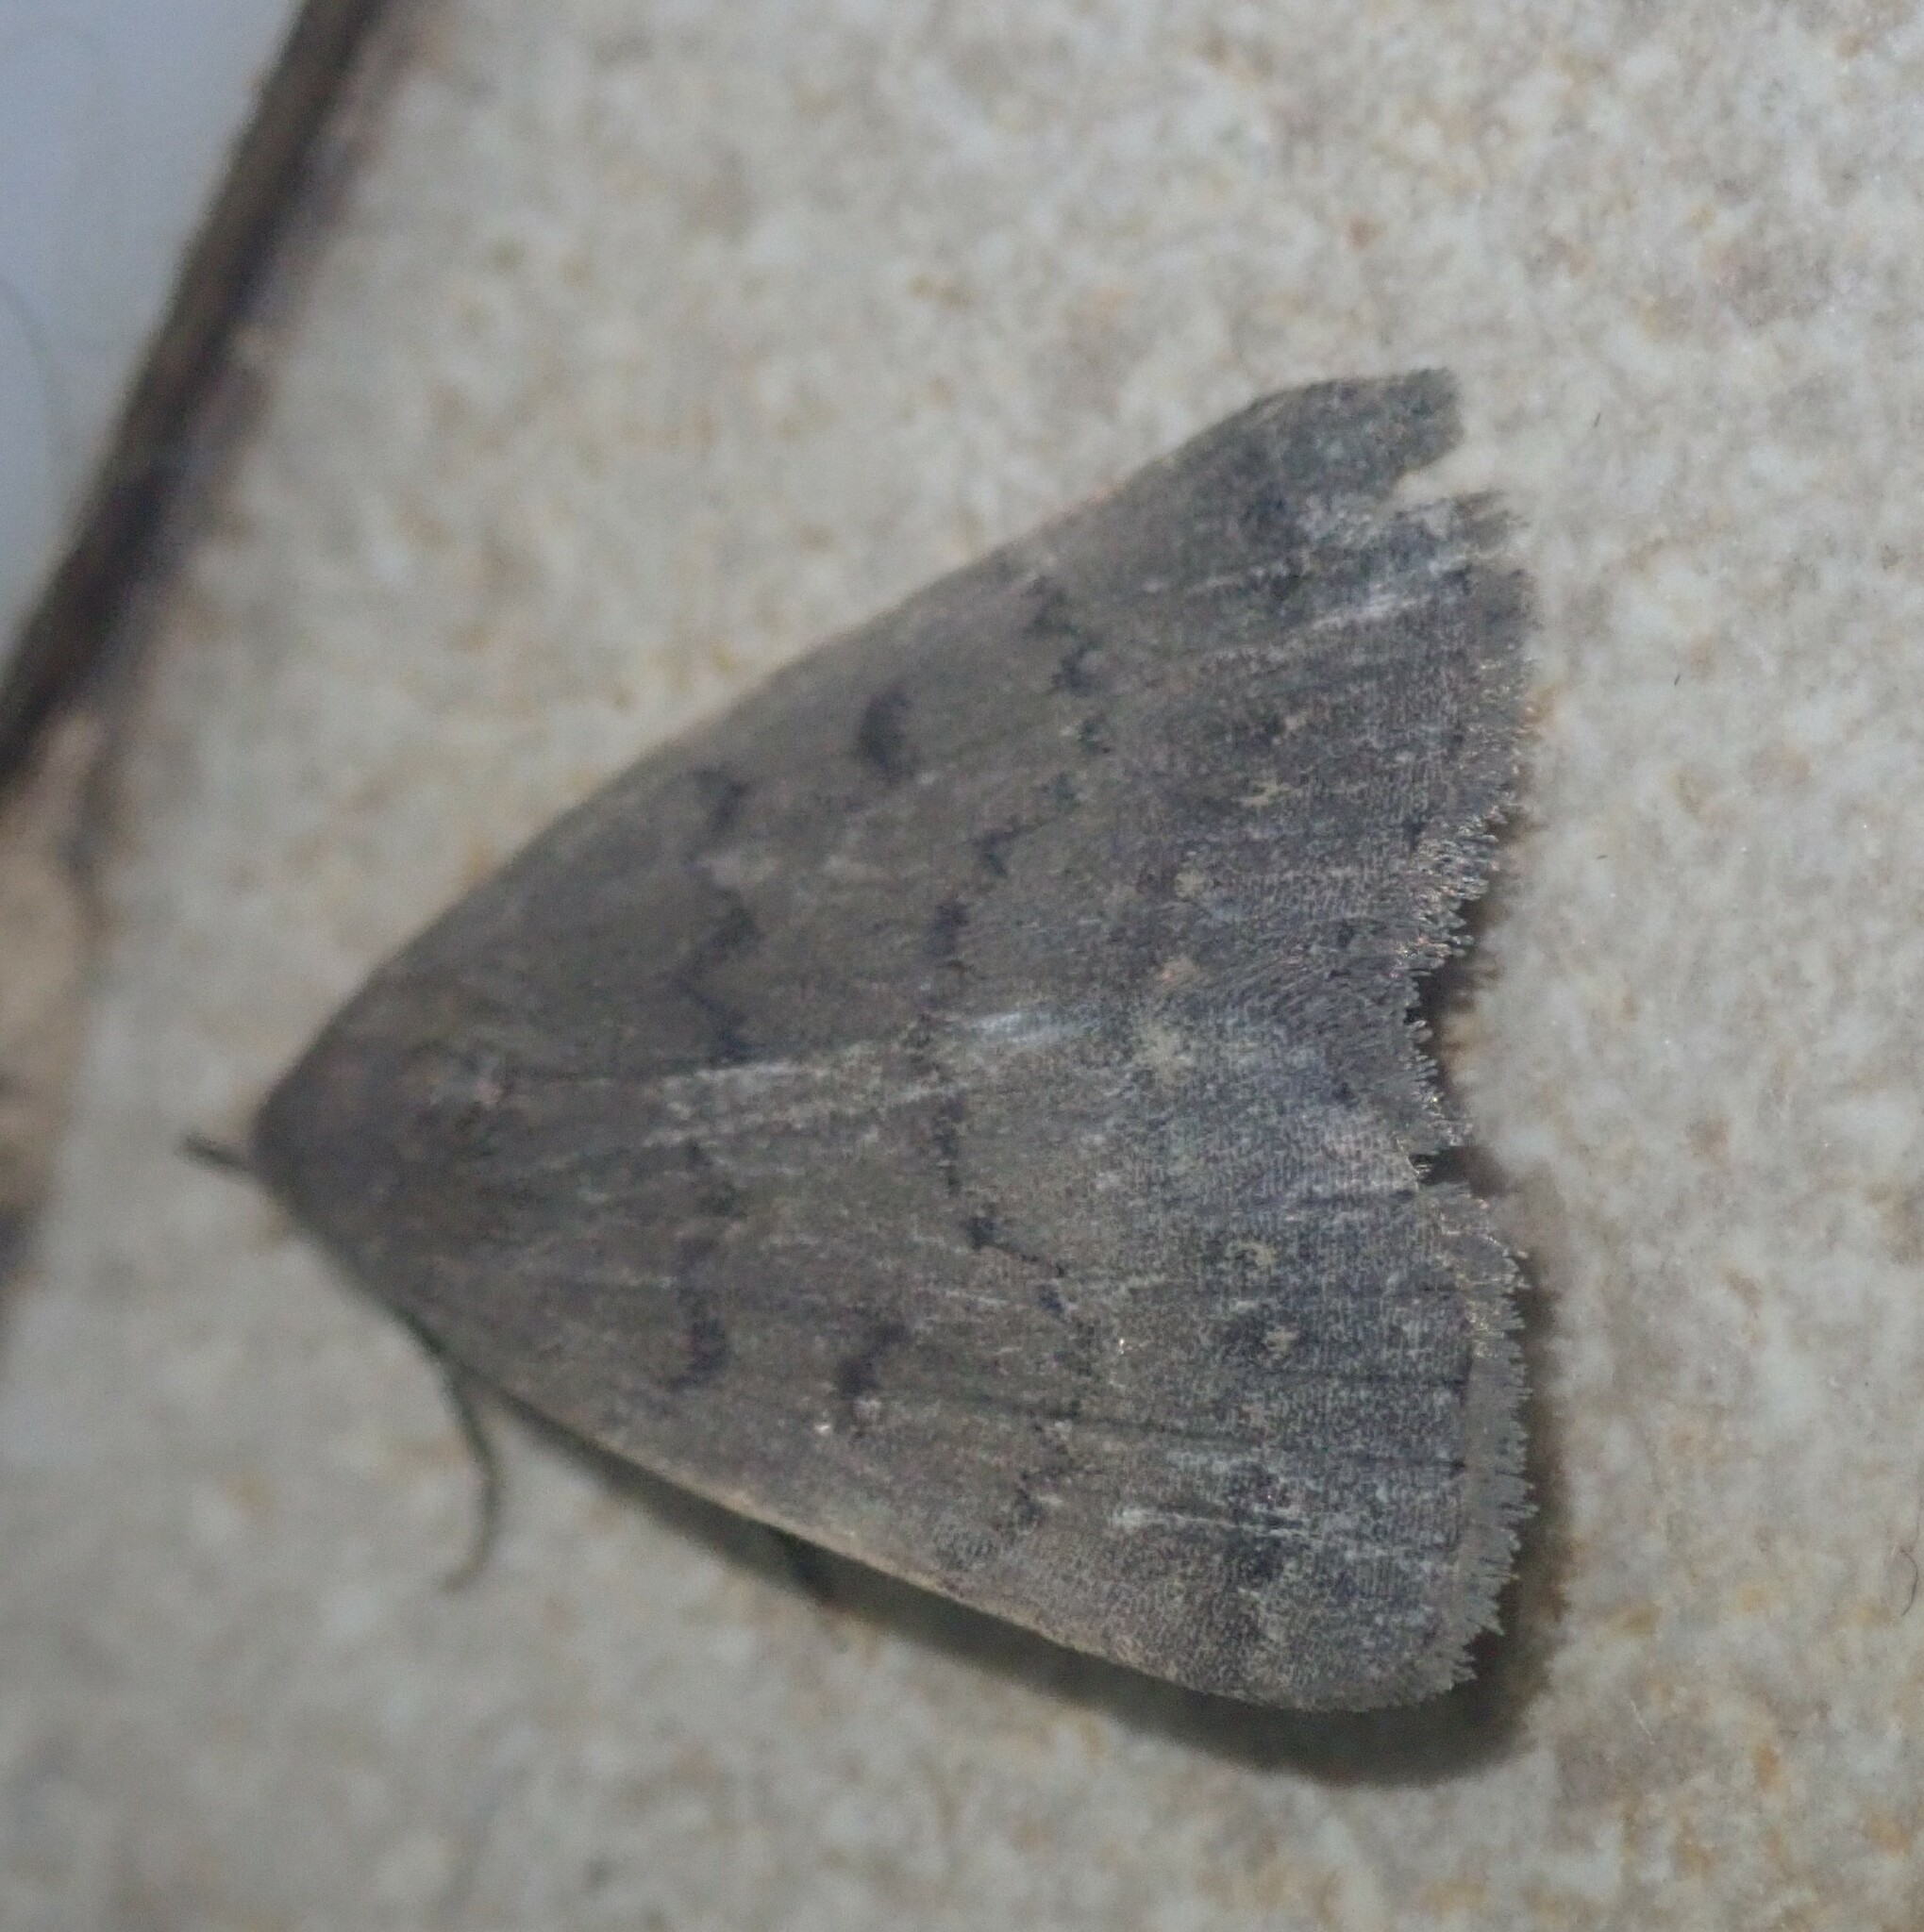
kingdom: Animalia
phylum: Arthropoda
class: Insecta
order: Lepidoptera
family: Erebidae
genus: Nodaria
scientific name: Nodaria nodosalis
